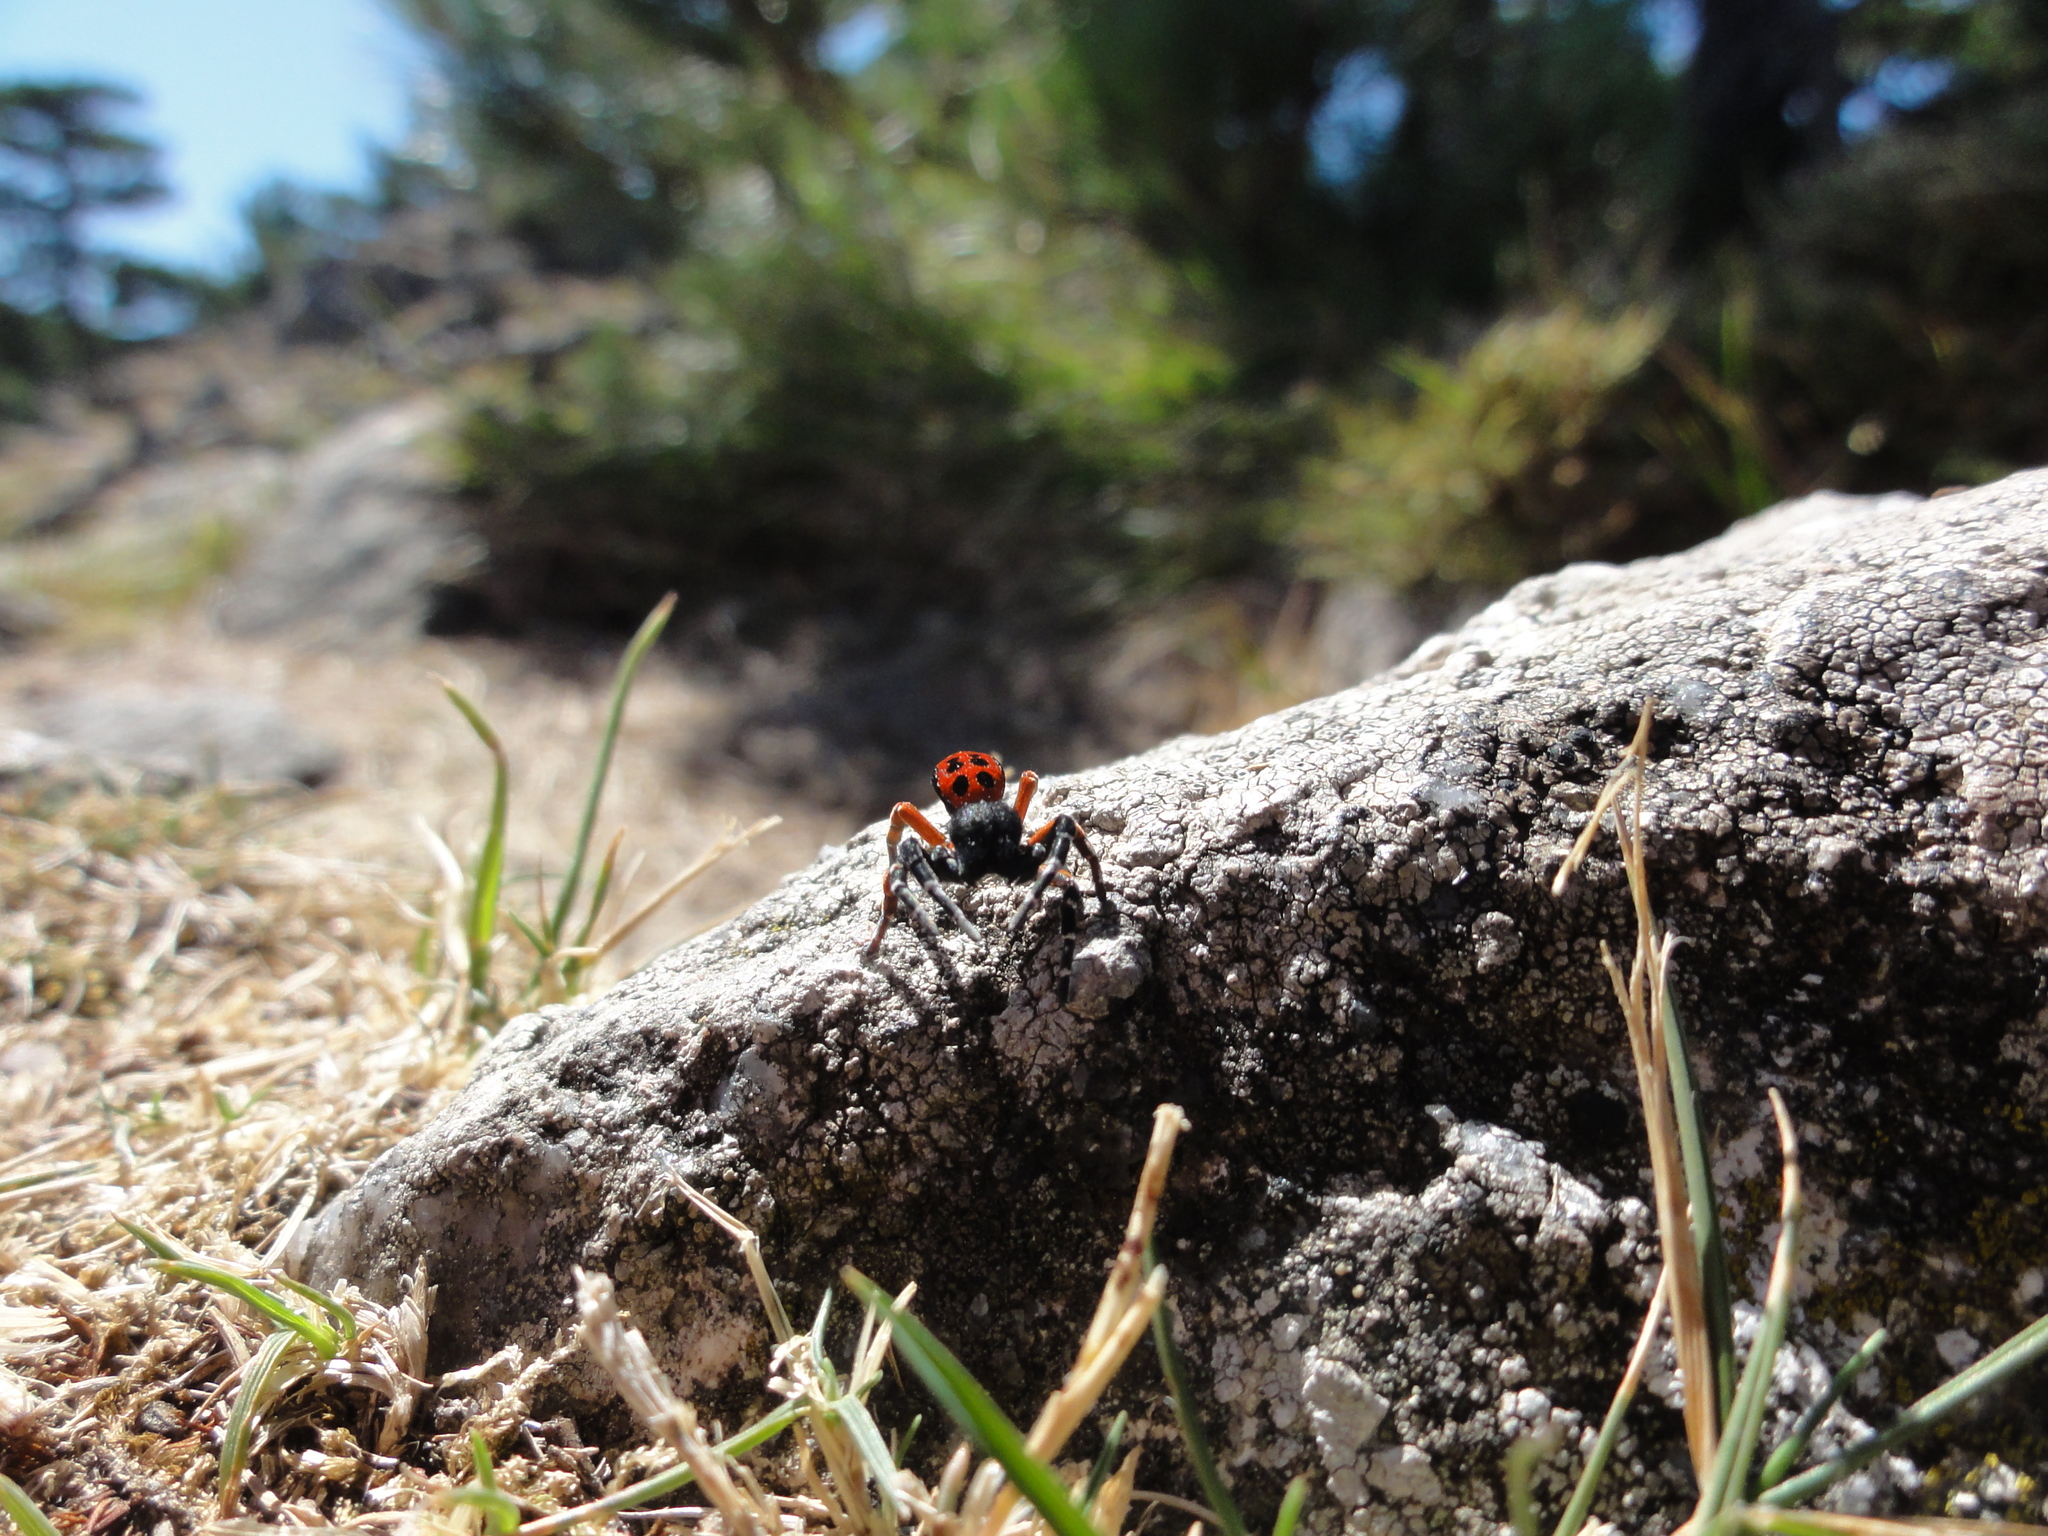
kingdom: Animalia
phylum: Arthropoda
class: Arachnida
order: Araneae
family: Eresidae
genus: Eresus
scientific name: Eresus
